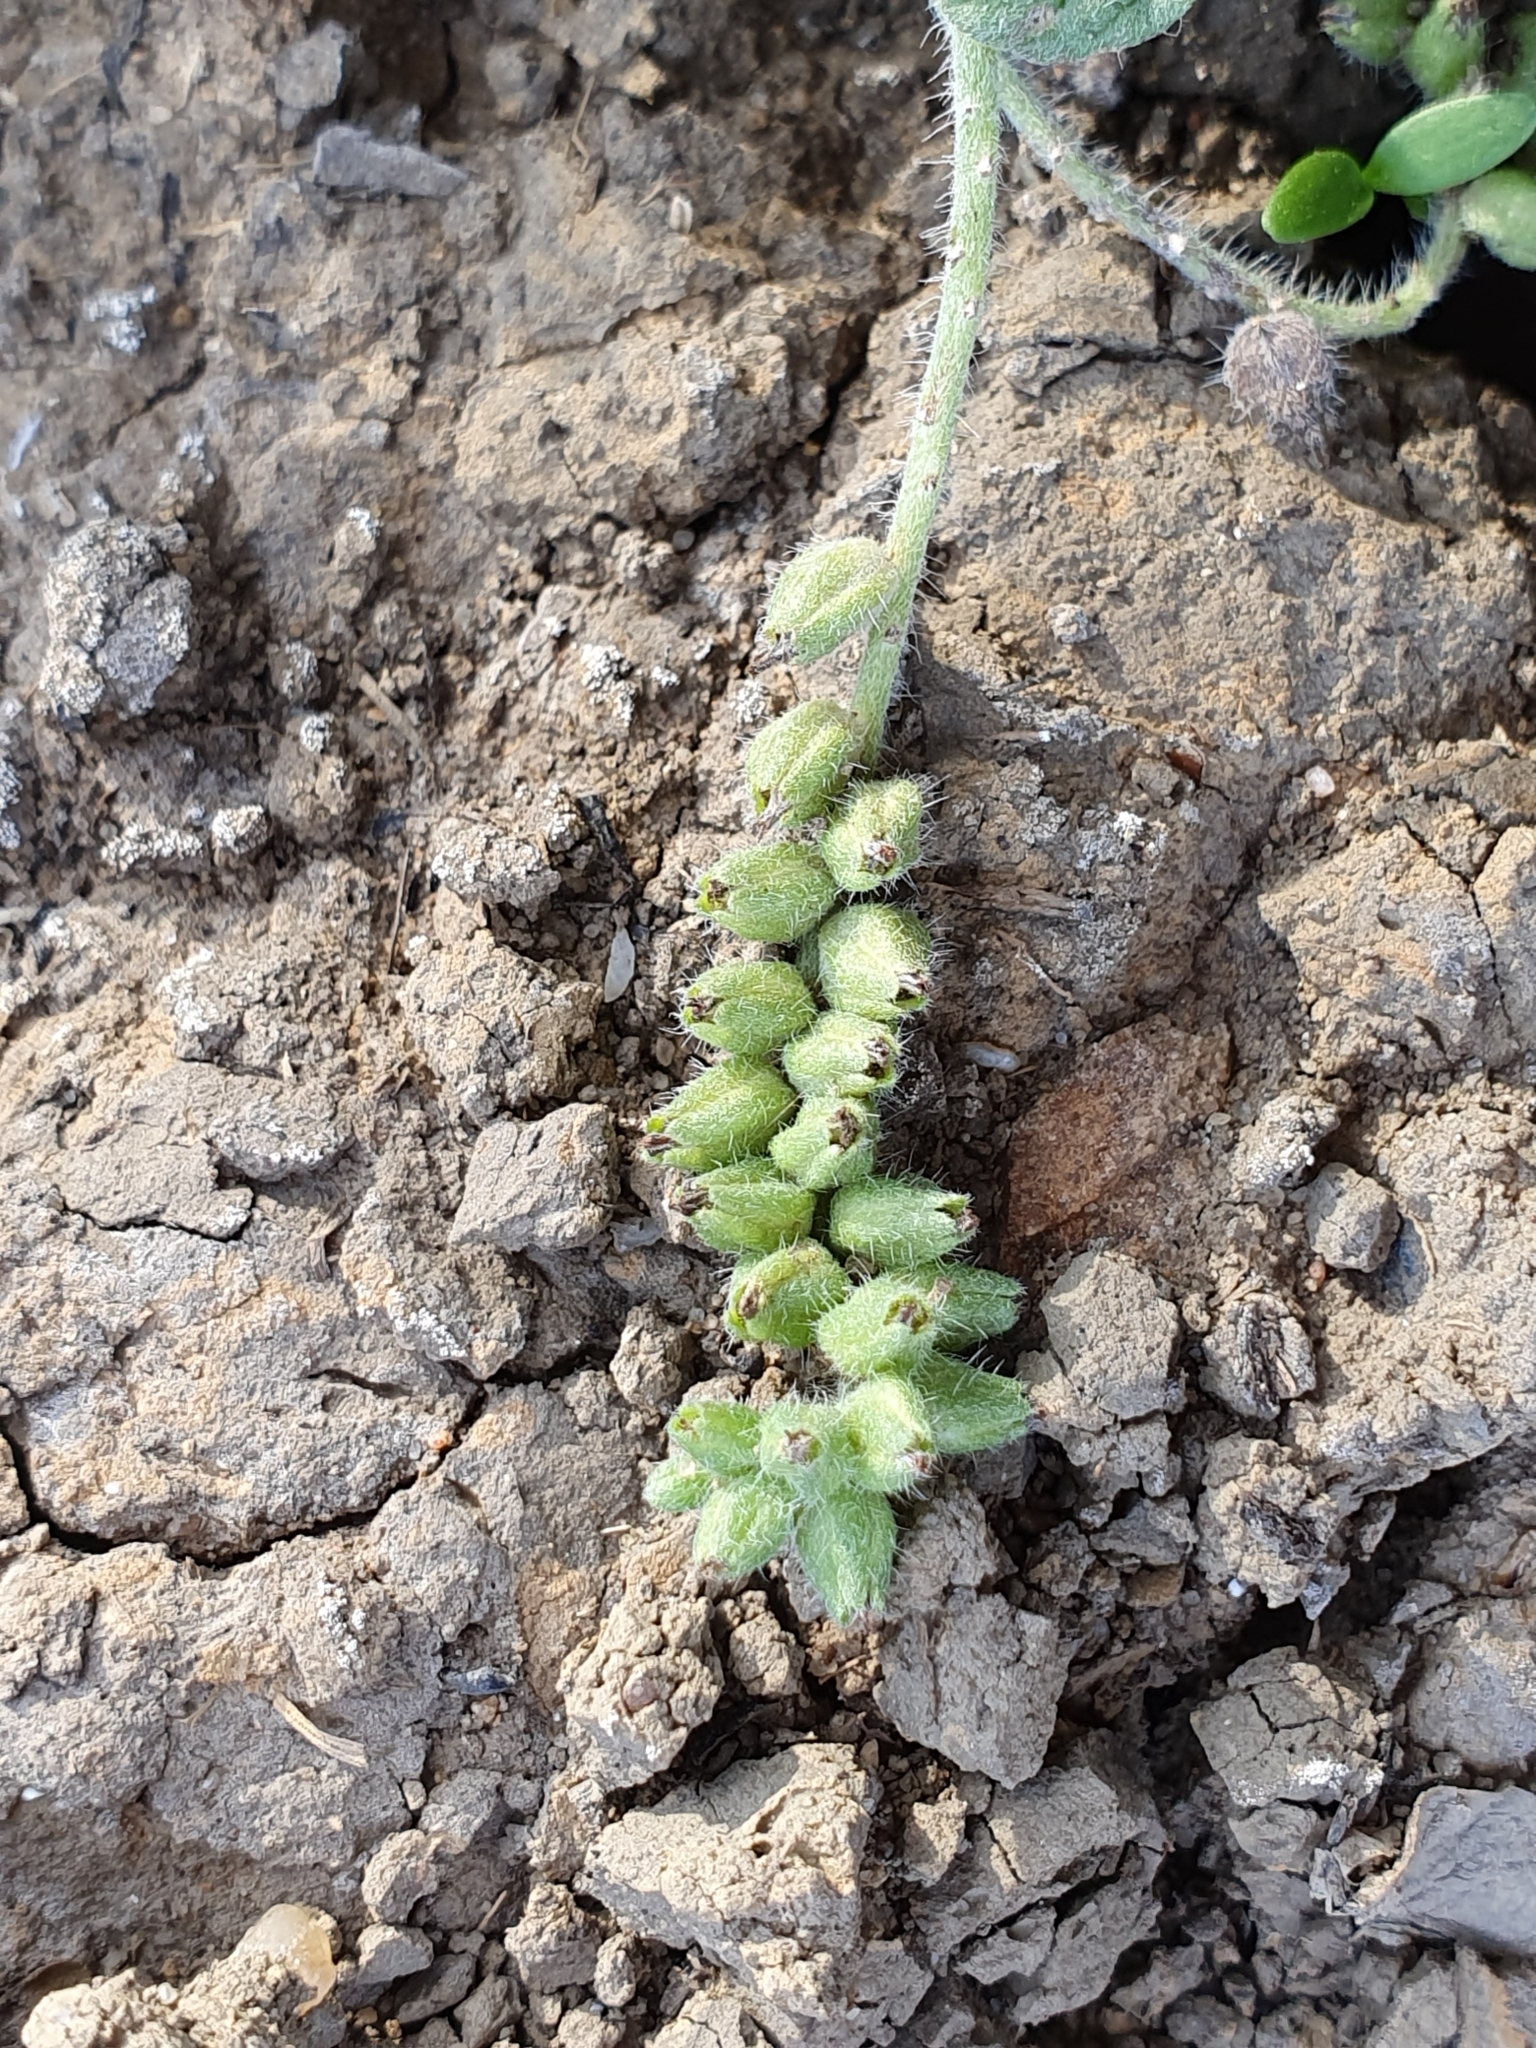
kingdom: Plantae
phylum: Tracheophyta
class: Magnoliopsida
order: Boraginales
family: Heliotropiaceae
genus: Heliotropium
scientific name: Heliotropium supinum
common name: Dwarf heliotrope
